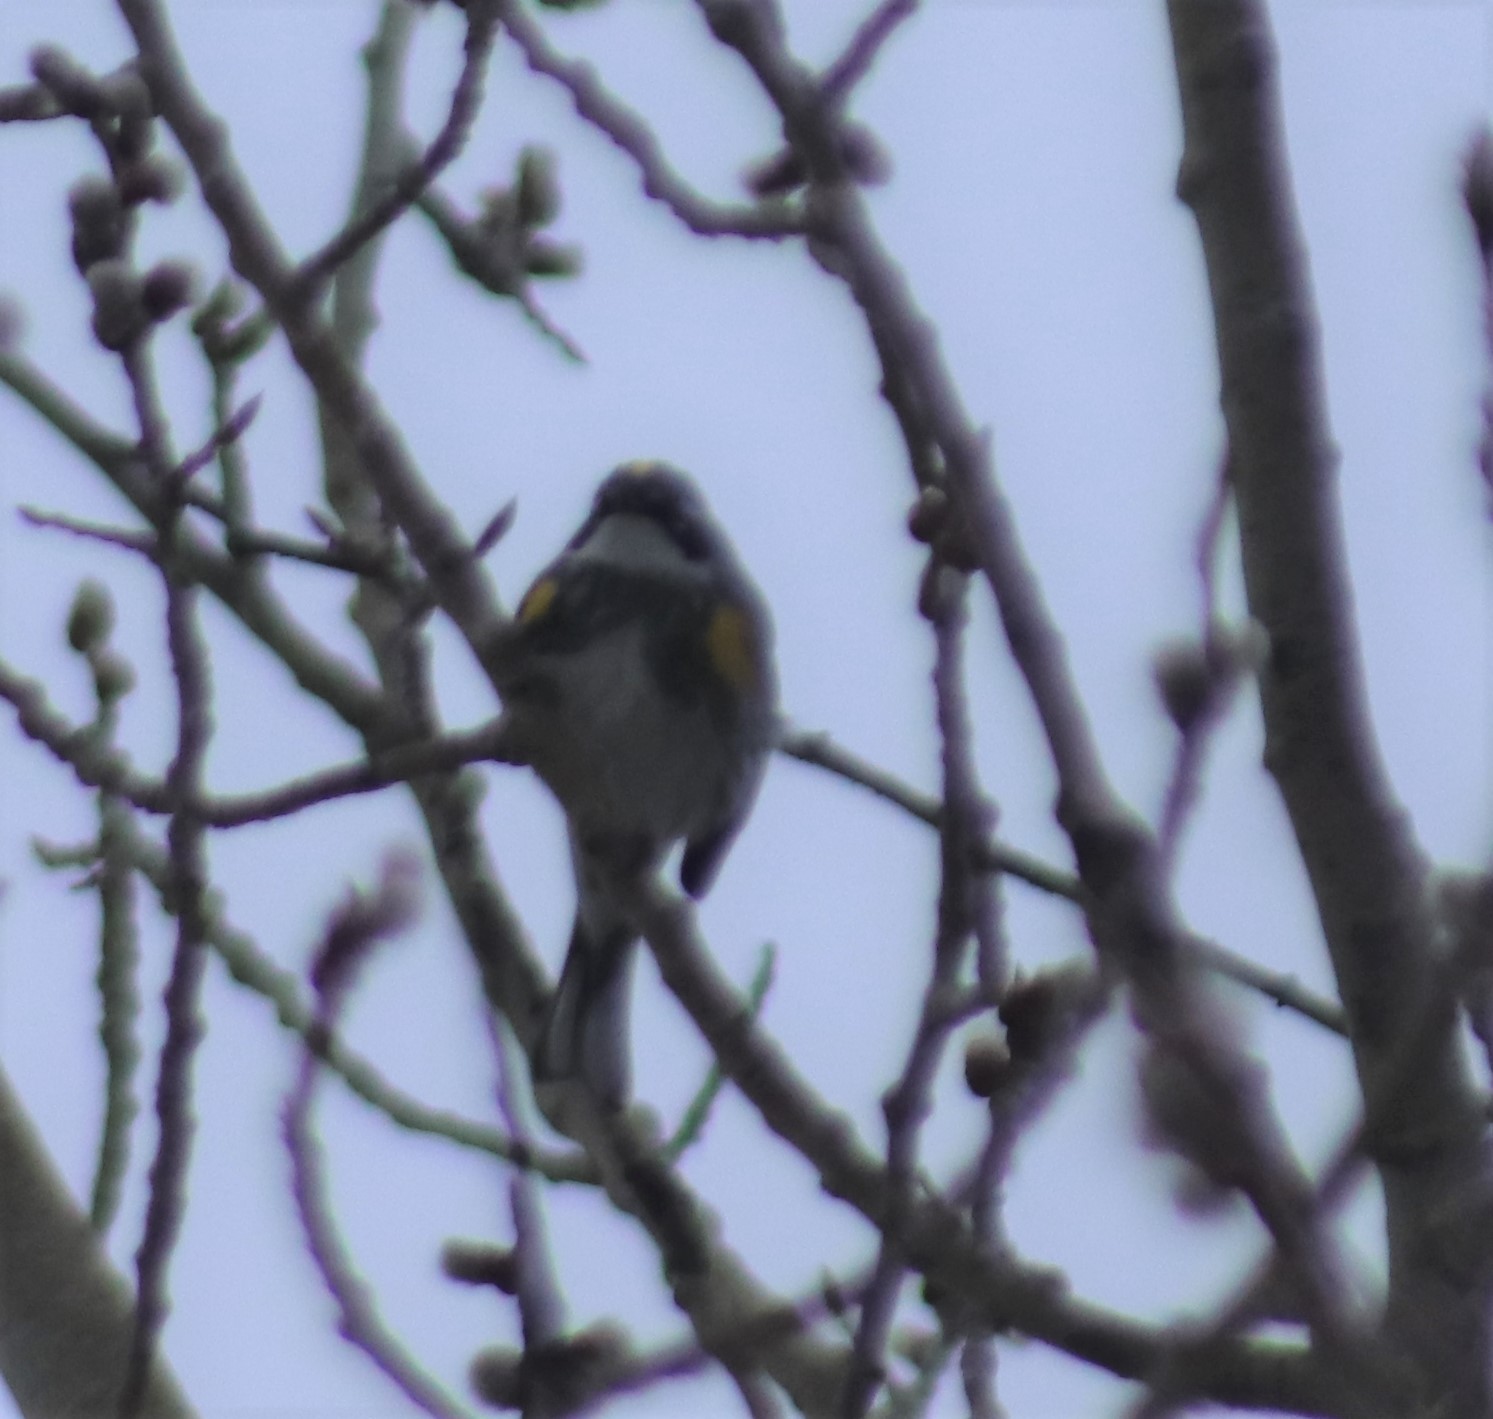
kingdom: Animalia
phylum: Chordata
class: Aves
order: Passeriformes
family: Parulidae
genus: Setophaga
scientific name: Setophaga coronata
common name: Myrtle warbler
